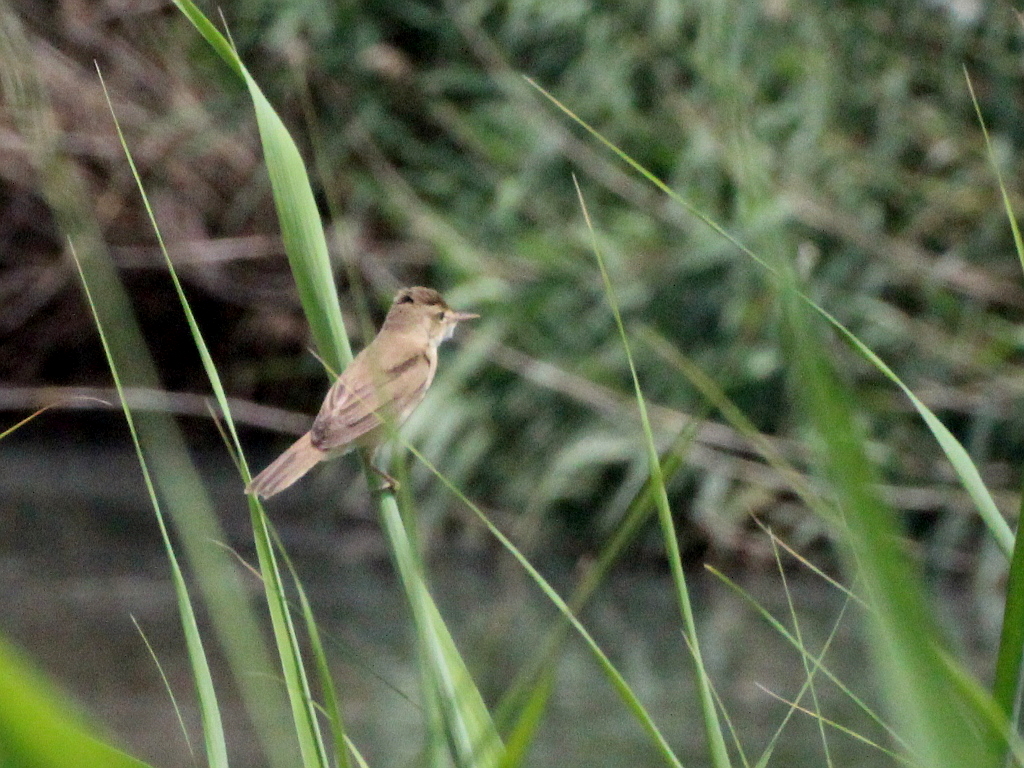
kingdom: Animalia
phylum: Chordata
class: Aves
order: Passeriformes
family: Acrocephalidae
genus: Acrocephalus
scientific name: Acrocephalus scirpaceus
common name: Eurasian reed warbler
